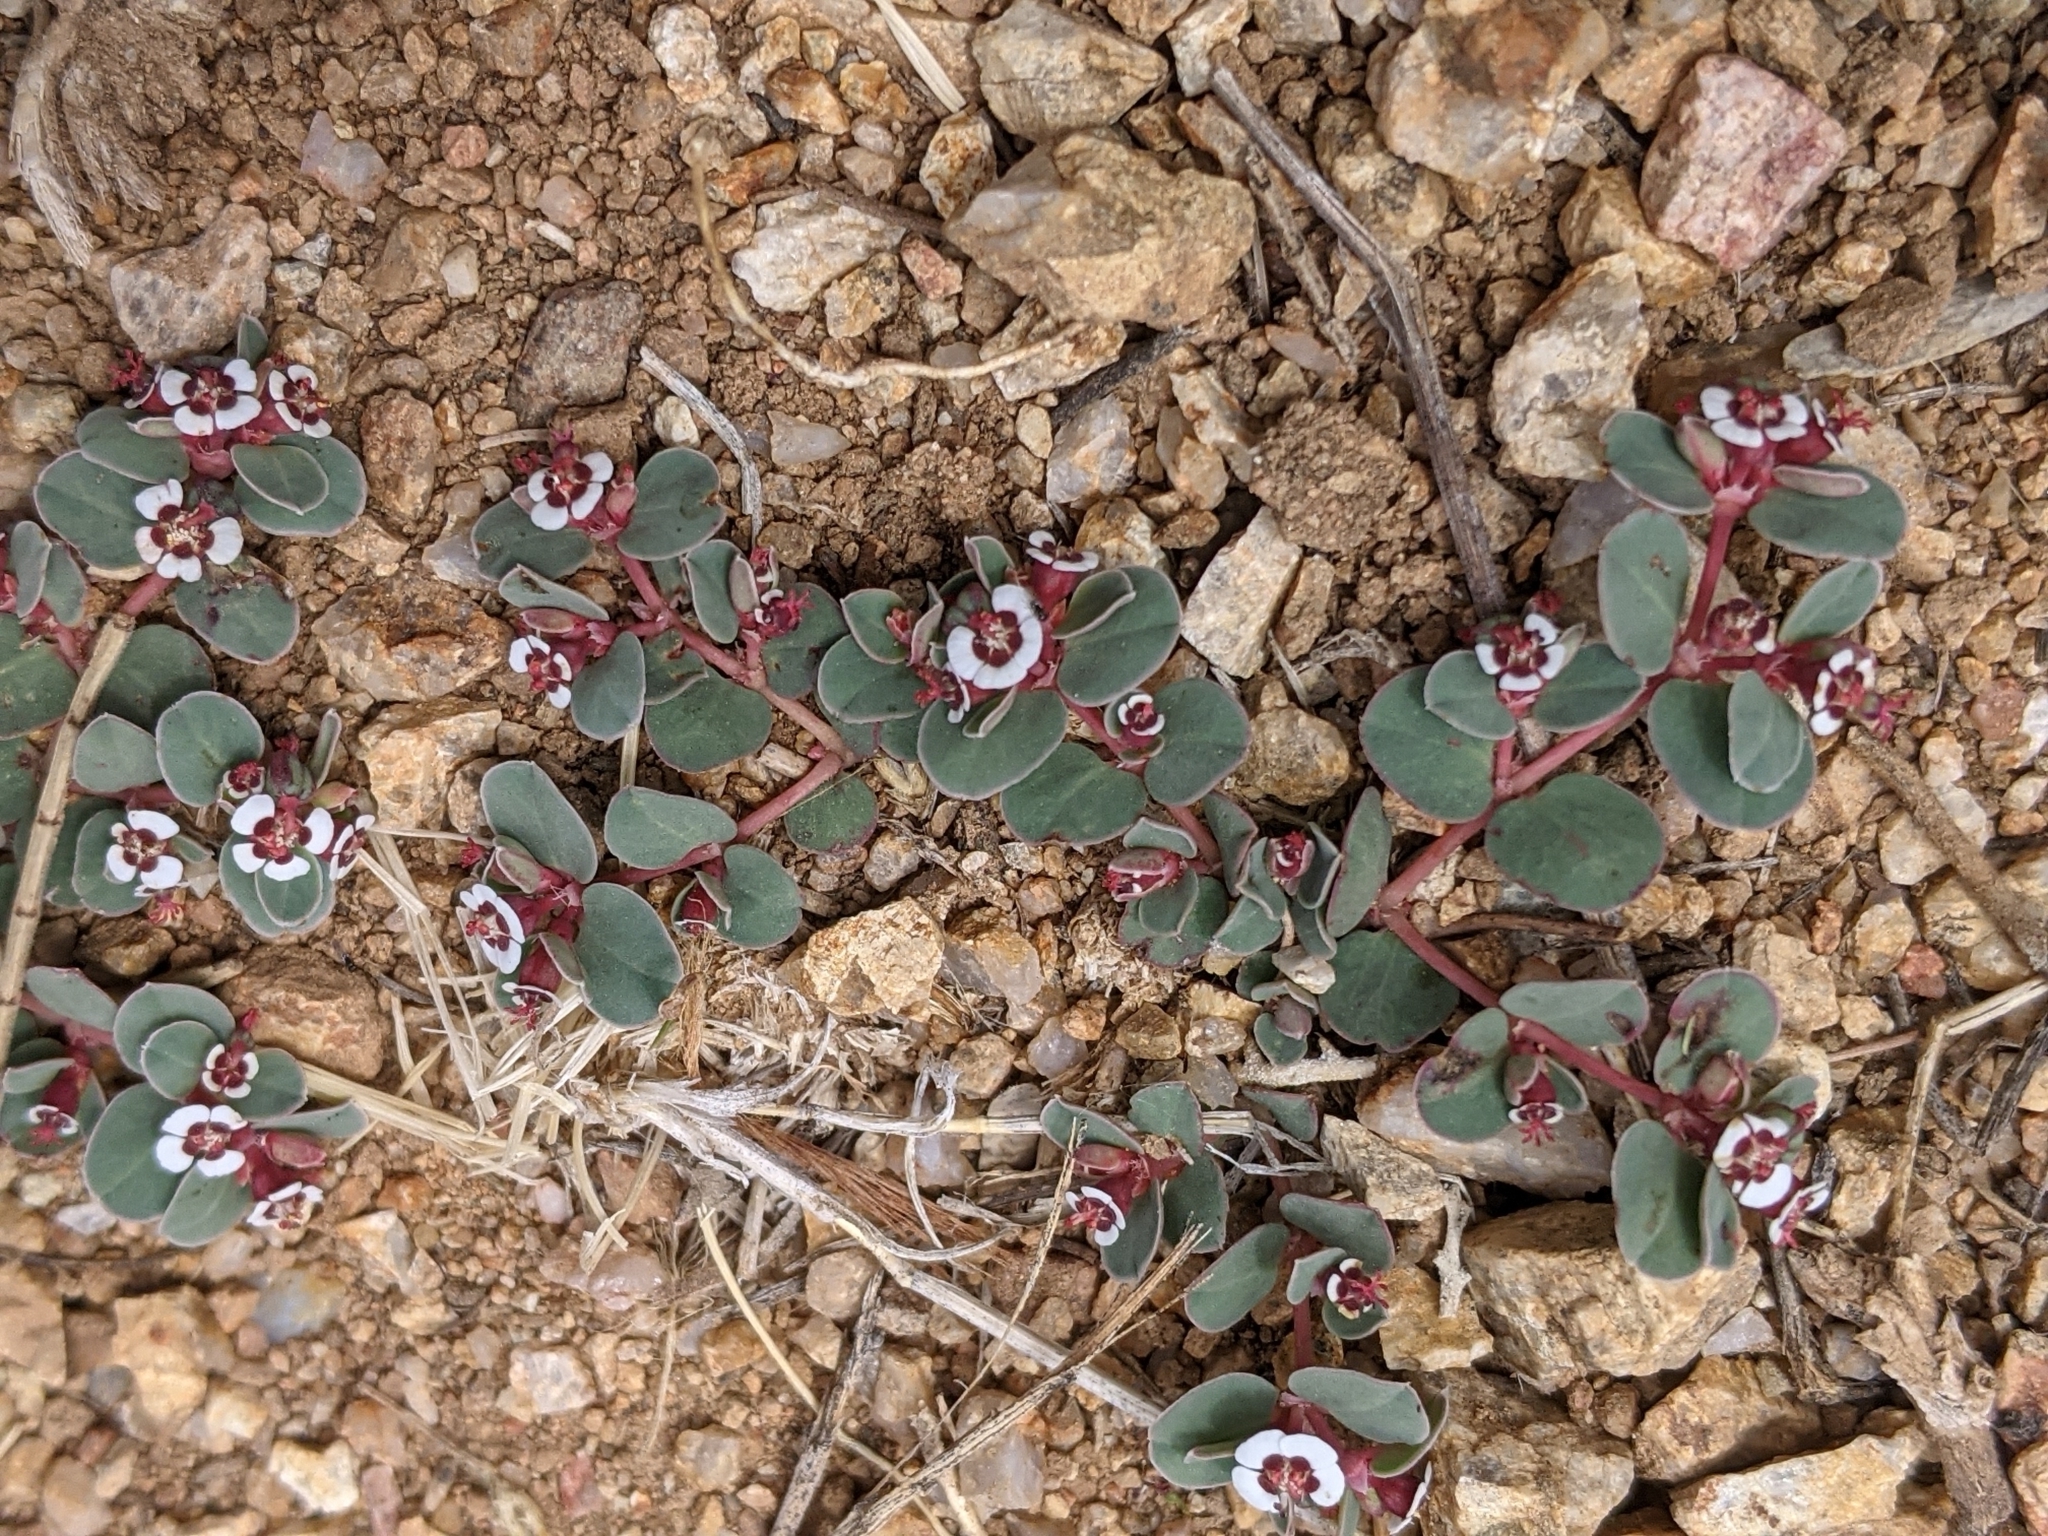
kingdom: Plantae
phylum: Tracheophyta
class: Magnoliopsida
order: Malpighiales
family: Euphorbiaceae
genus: Euphorbia
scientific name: Euphorbia albomarginata
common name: Whitemargin sandmat
